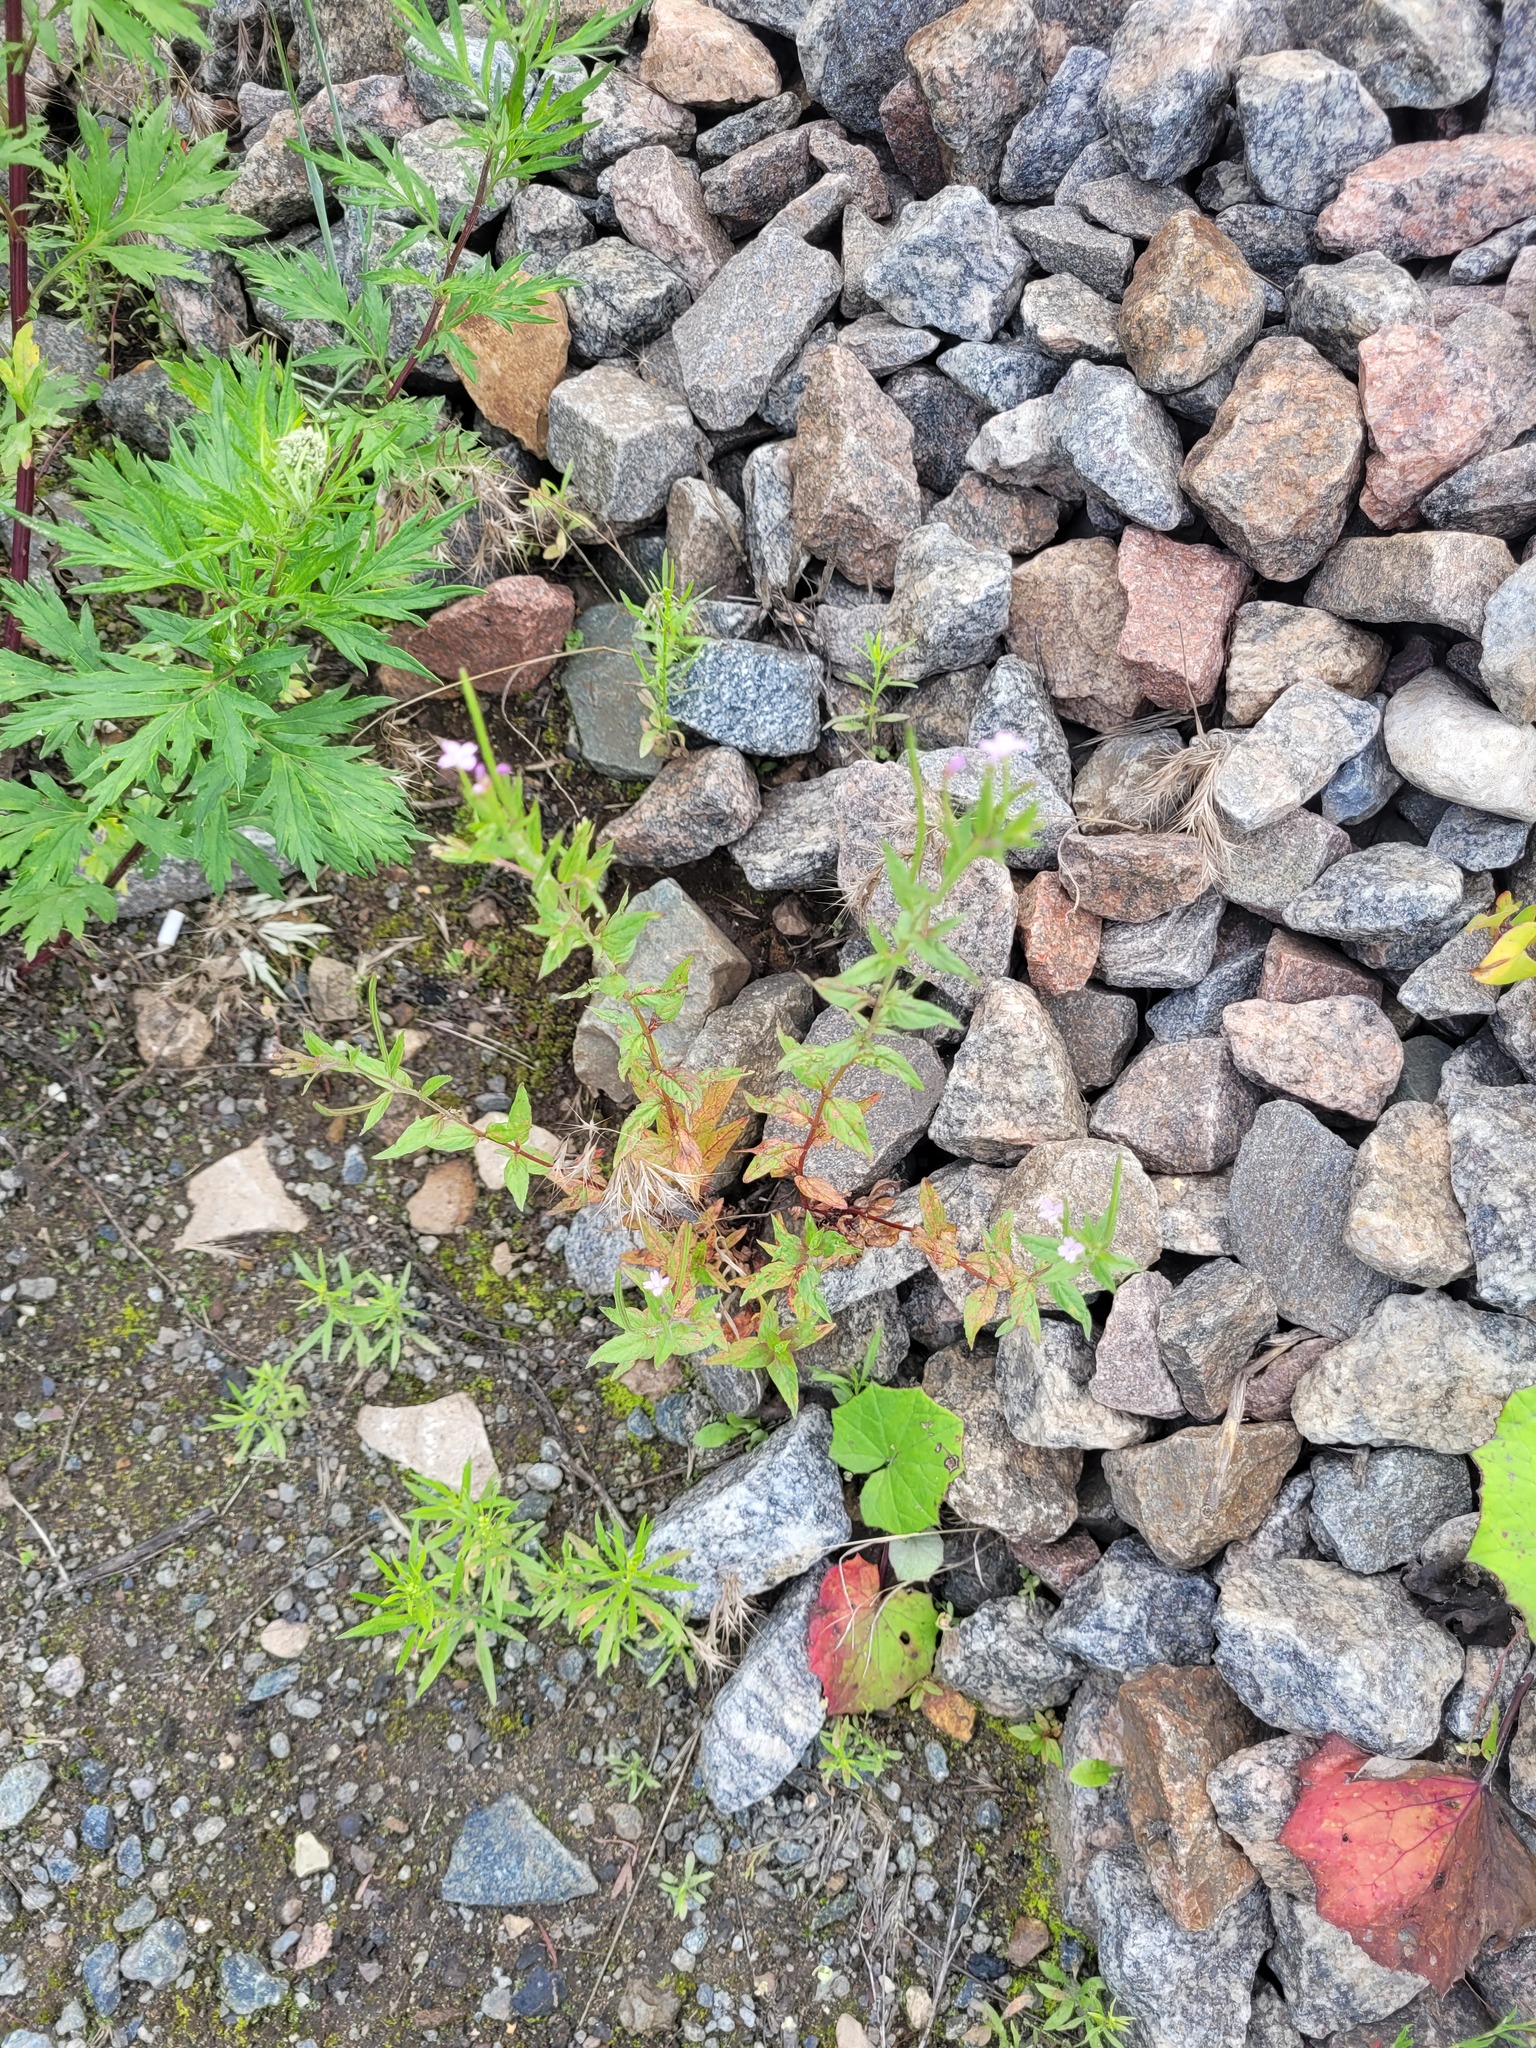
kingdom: Plantae
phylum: Tracheophyta
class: Magnoliopsida
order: Myrtales
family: Onagraceae
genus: Epilobium
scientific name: Epilobium ciliatum
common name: American willowherb
